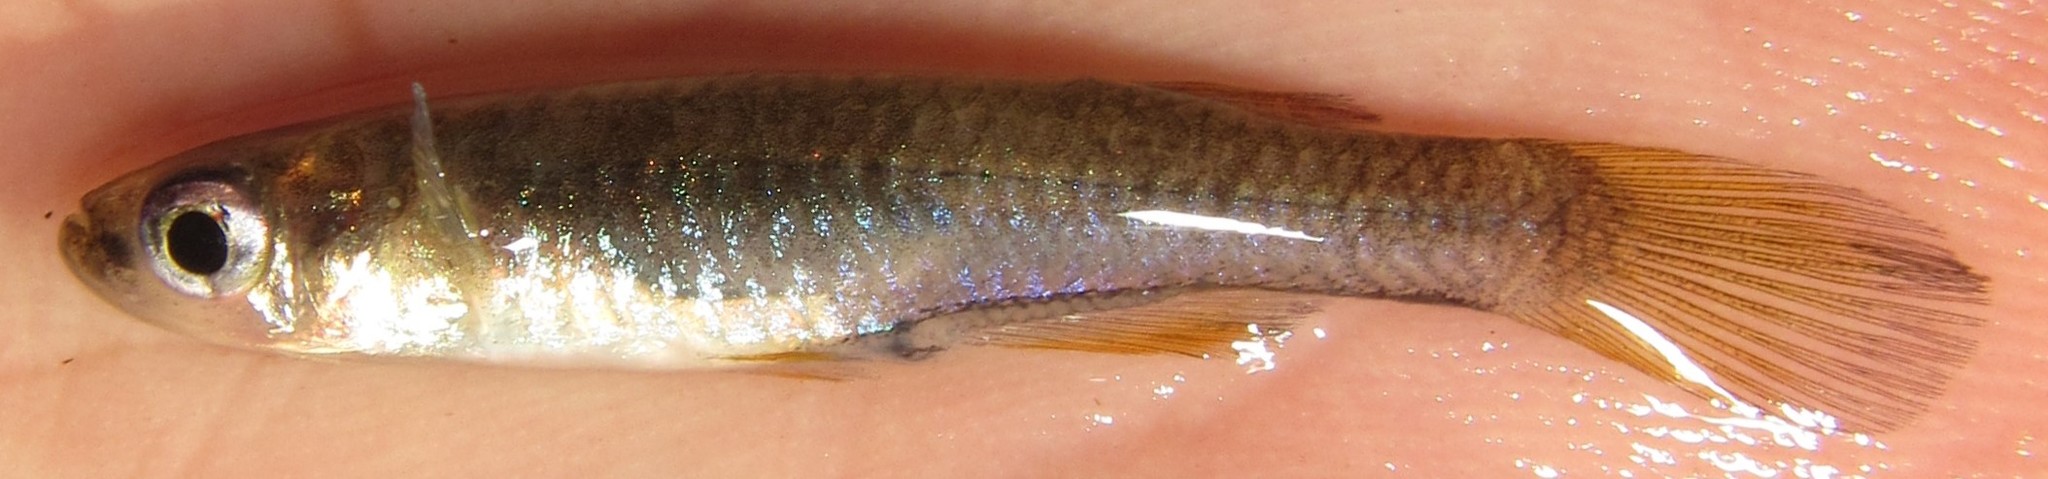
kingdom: Animalia
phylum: Chordata
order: Cyprinodontiformes
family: Poeciliidae
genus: Micropanchax
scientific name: Micropanchax johnstoni
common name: Johnston's topminnow
